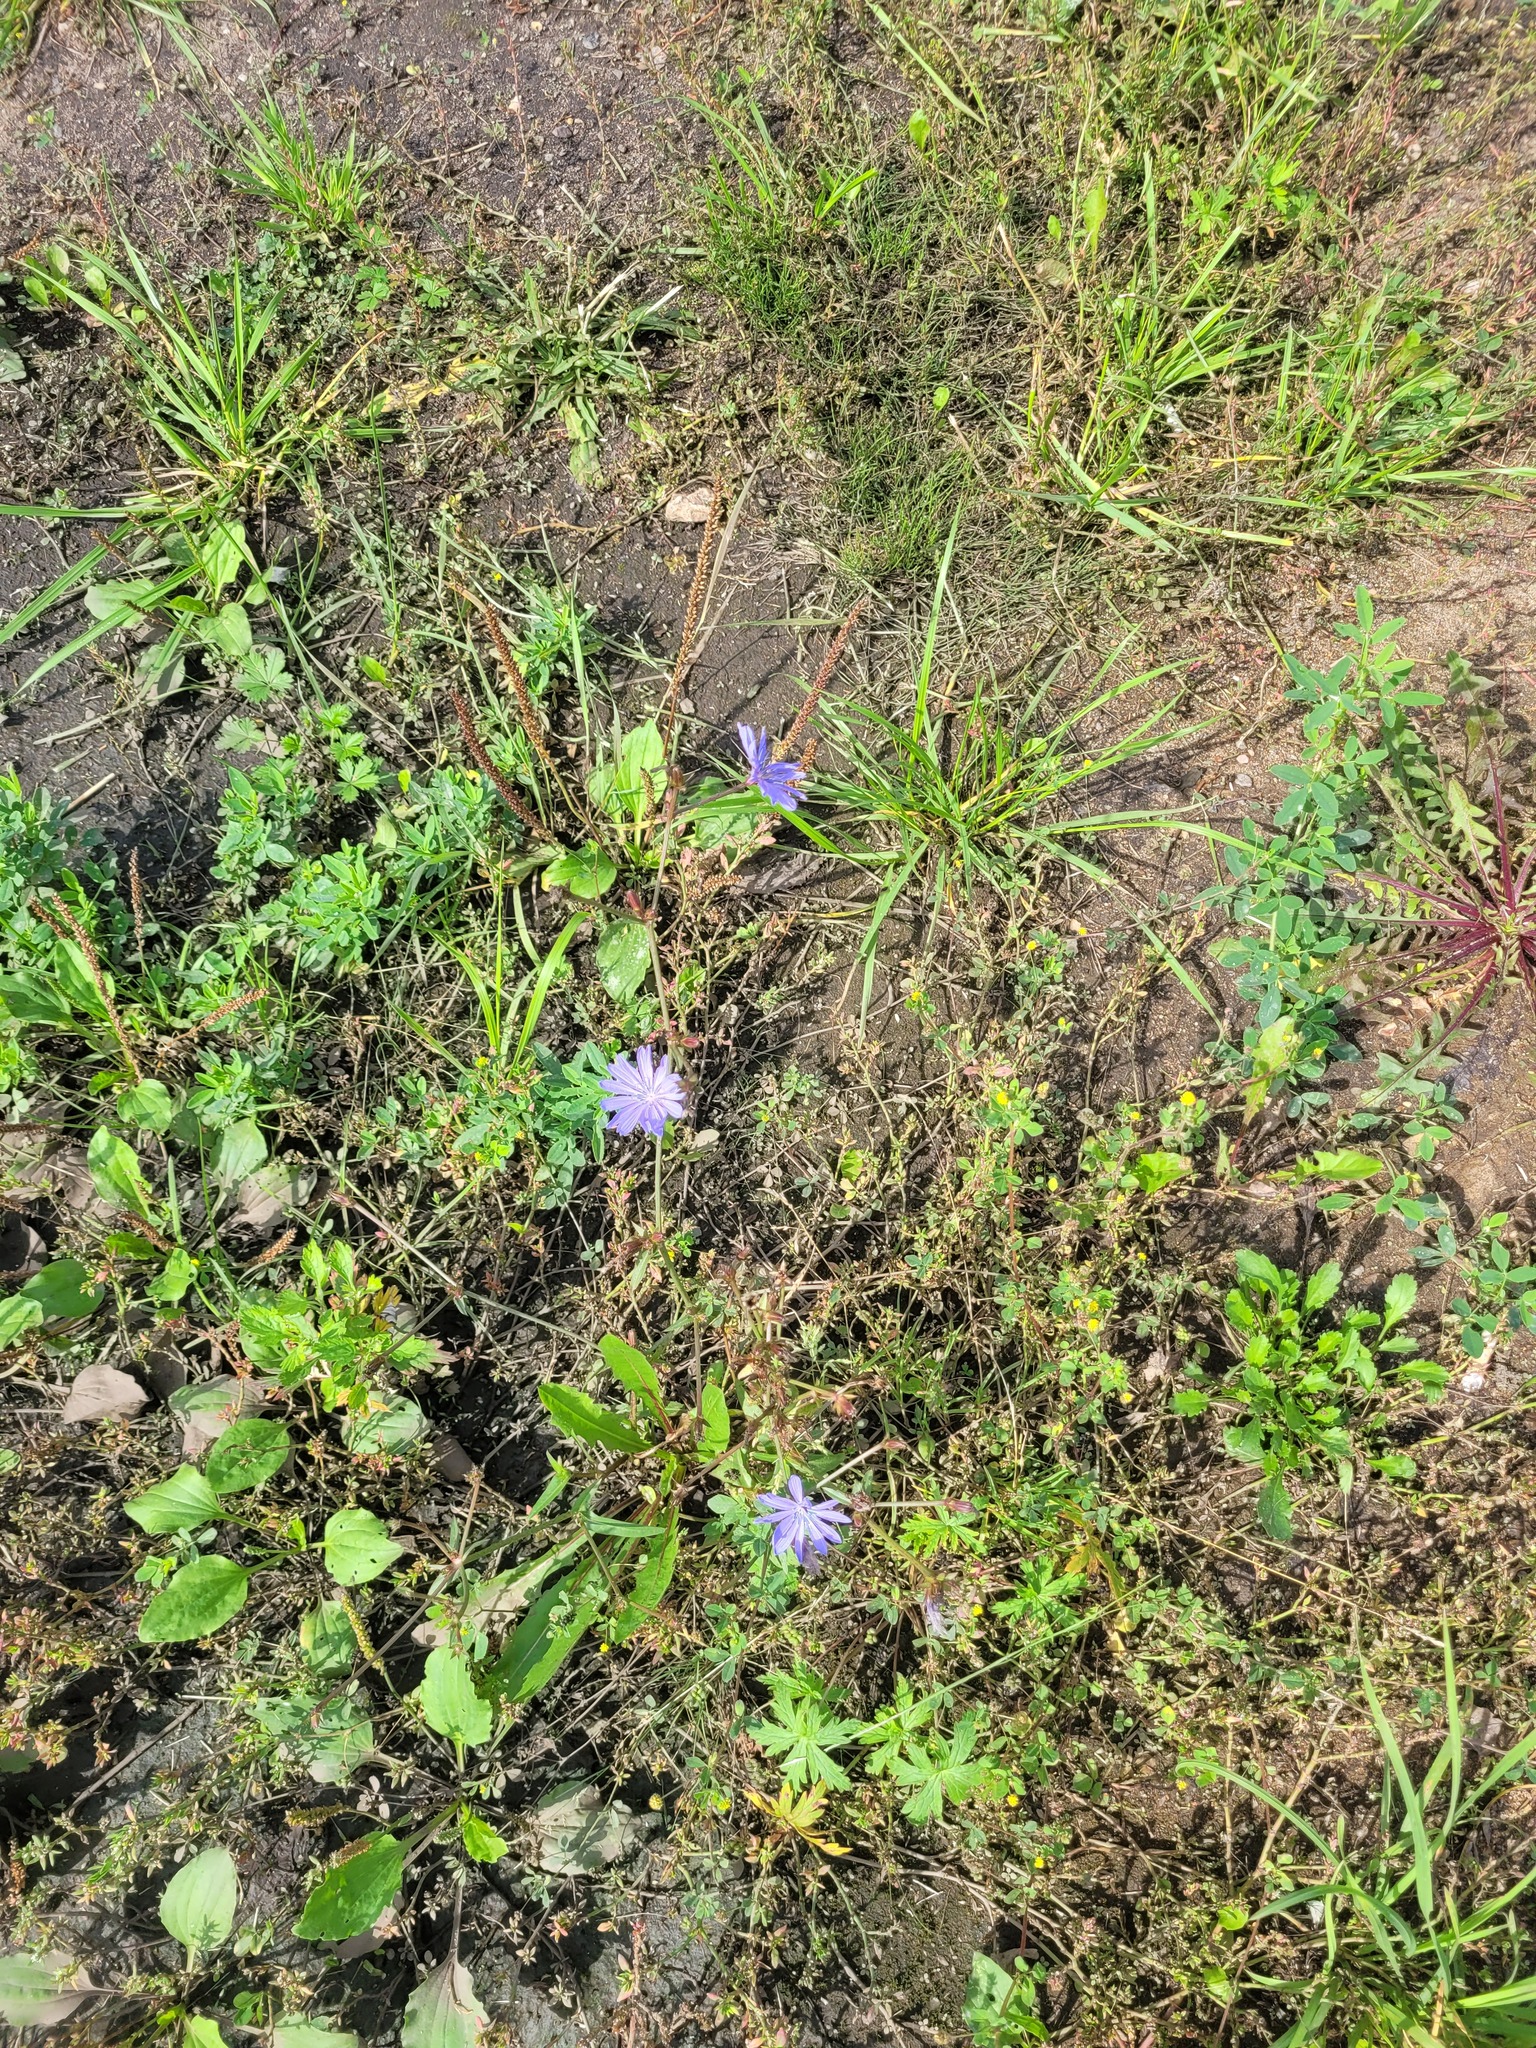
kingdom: Plantae
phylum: Tracheophyta
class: Magnoliopsida
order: Asterales
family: Asteraceae
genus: Cichorium
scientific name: Cichorium intybus
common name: Chicory
